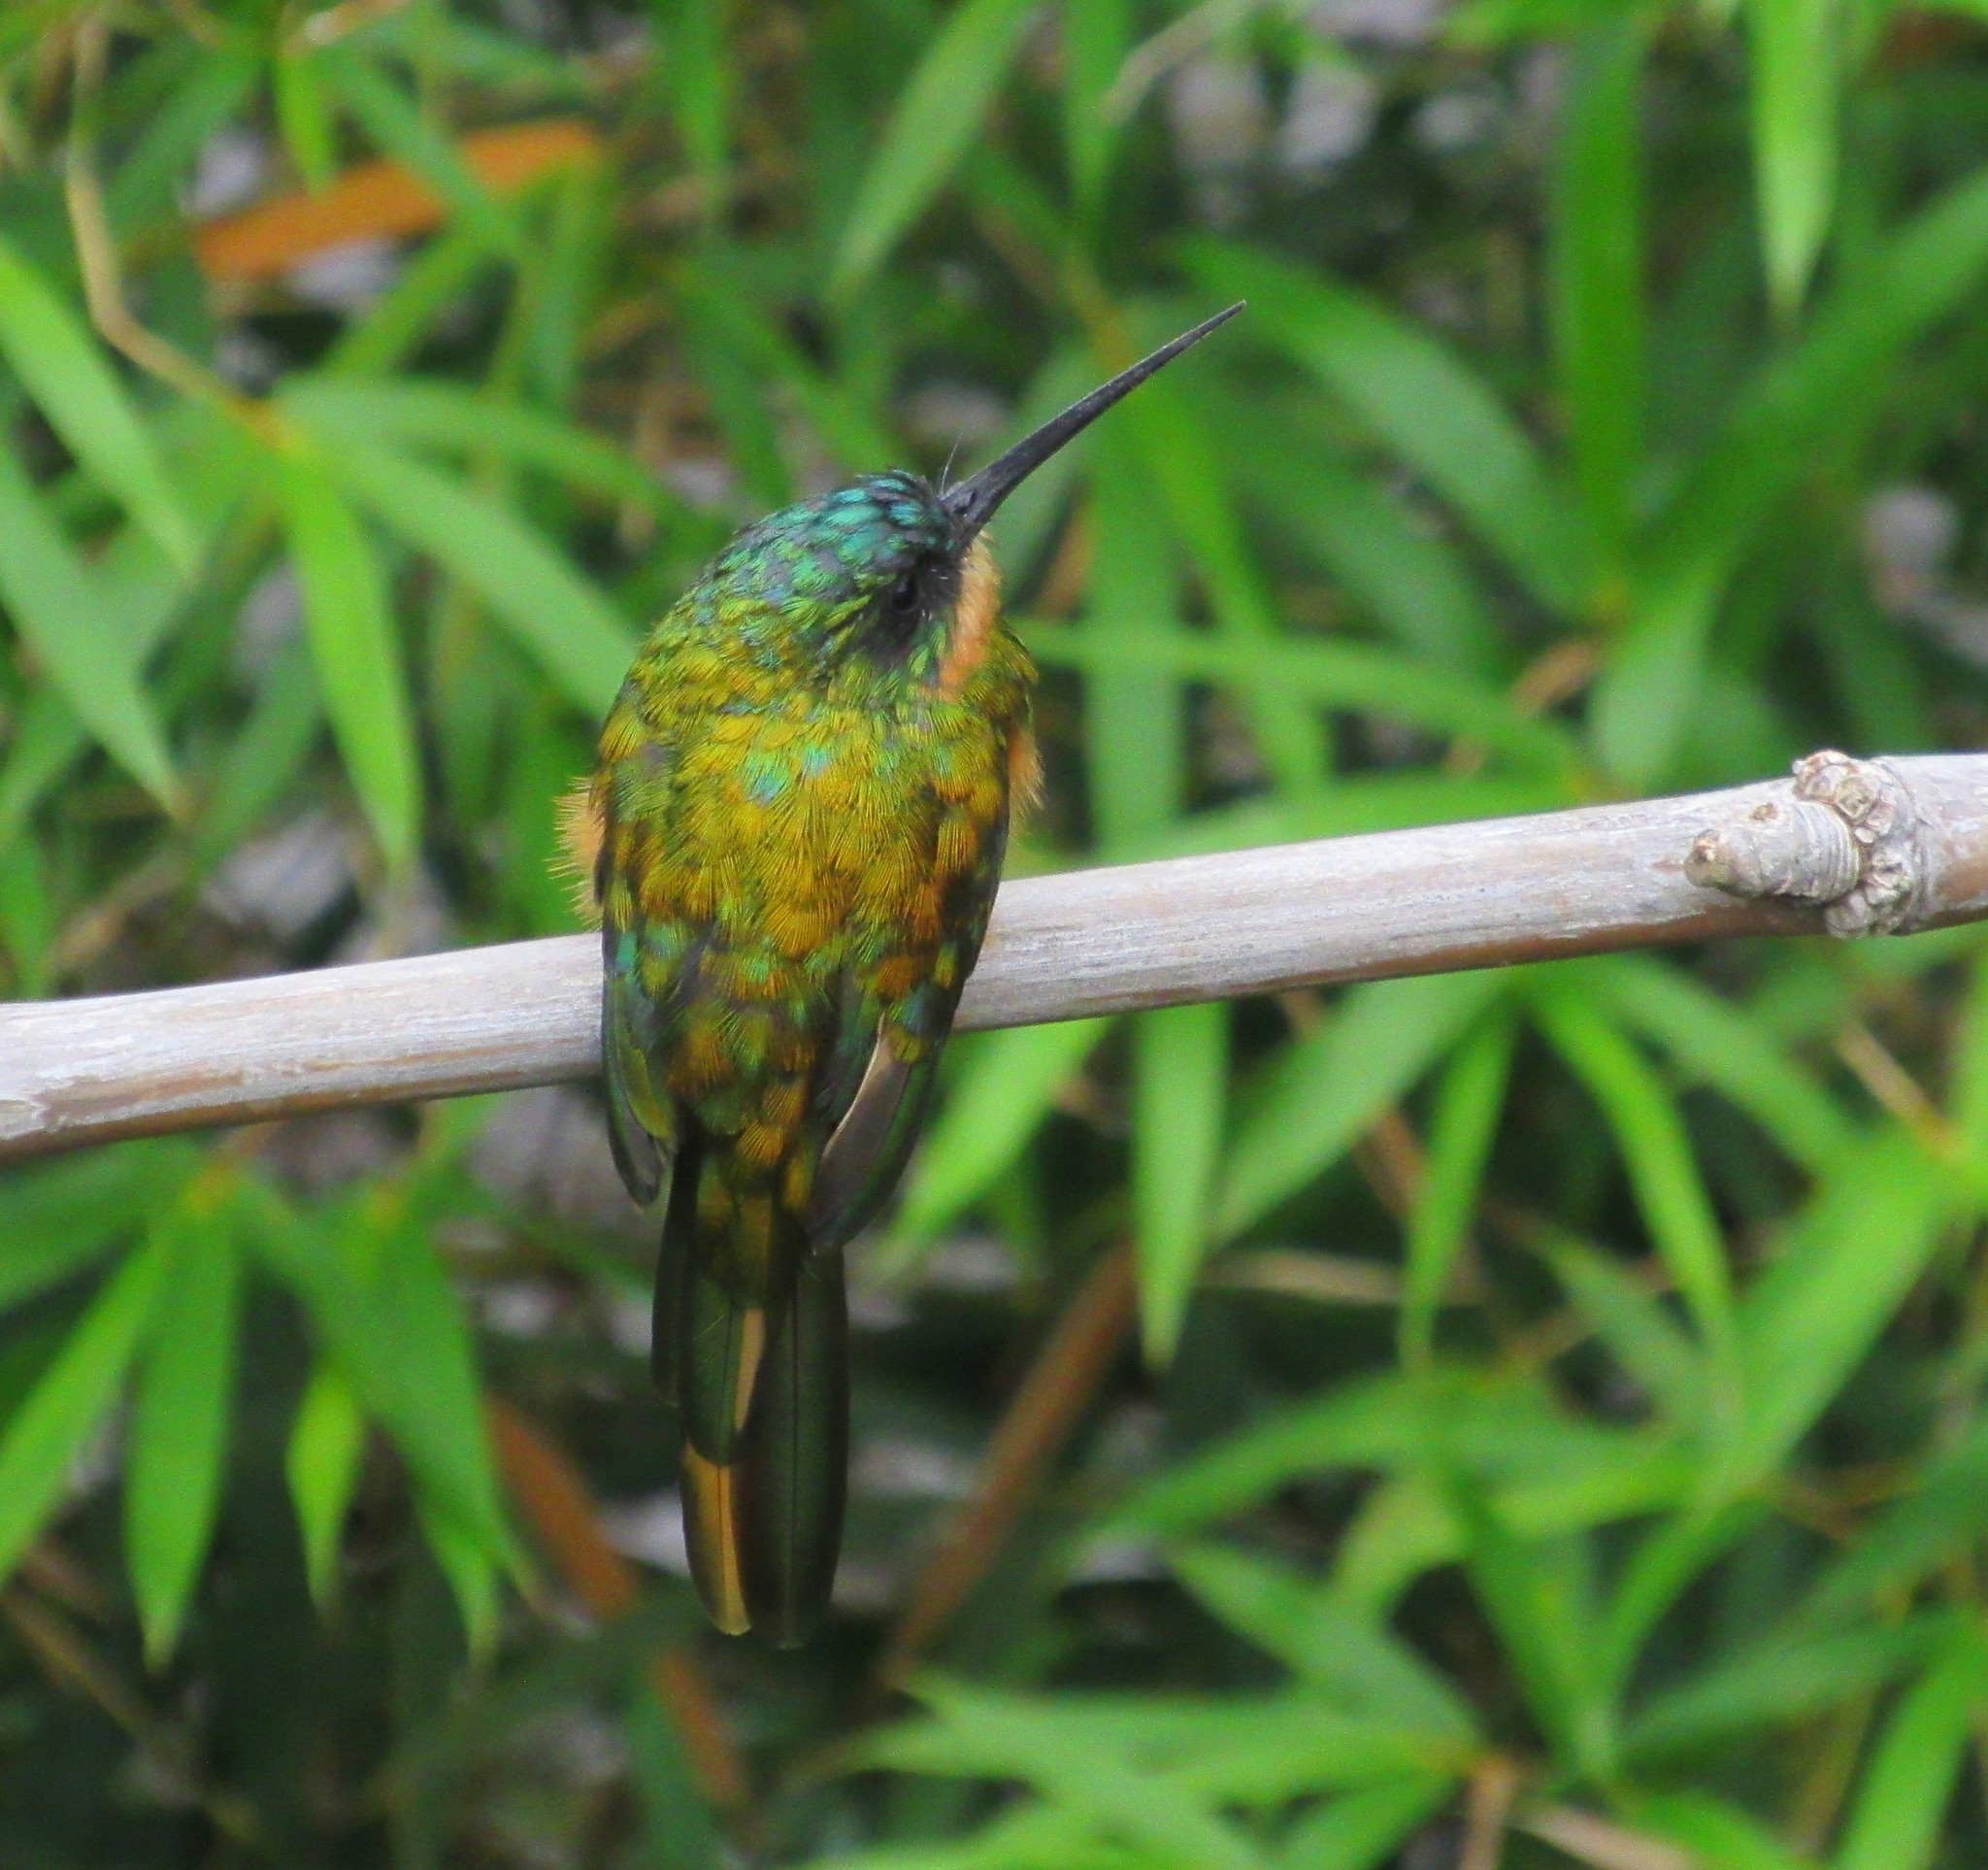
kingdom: Animalia
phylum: Chordata
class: Aves
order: Piciformes
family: Galbulidae
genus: Galbula
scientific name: Galbula ruficauda
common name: Rufous-tailed jacamar
